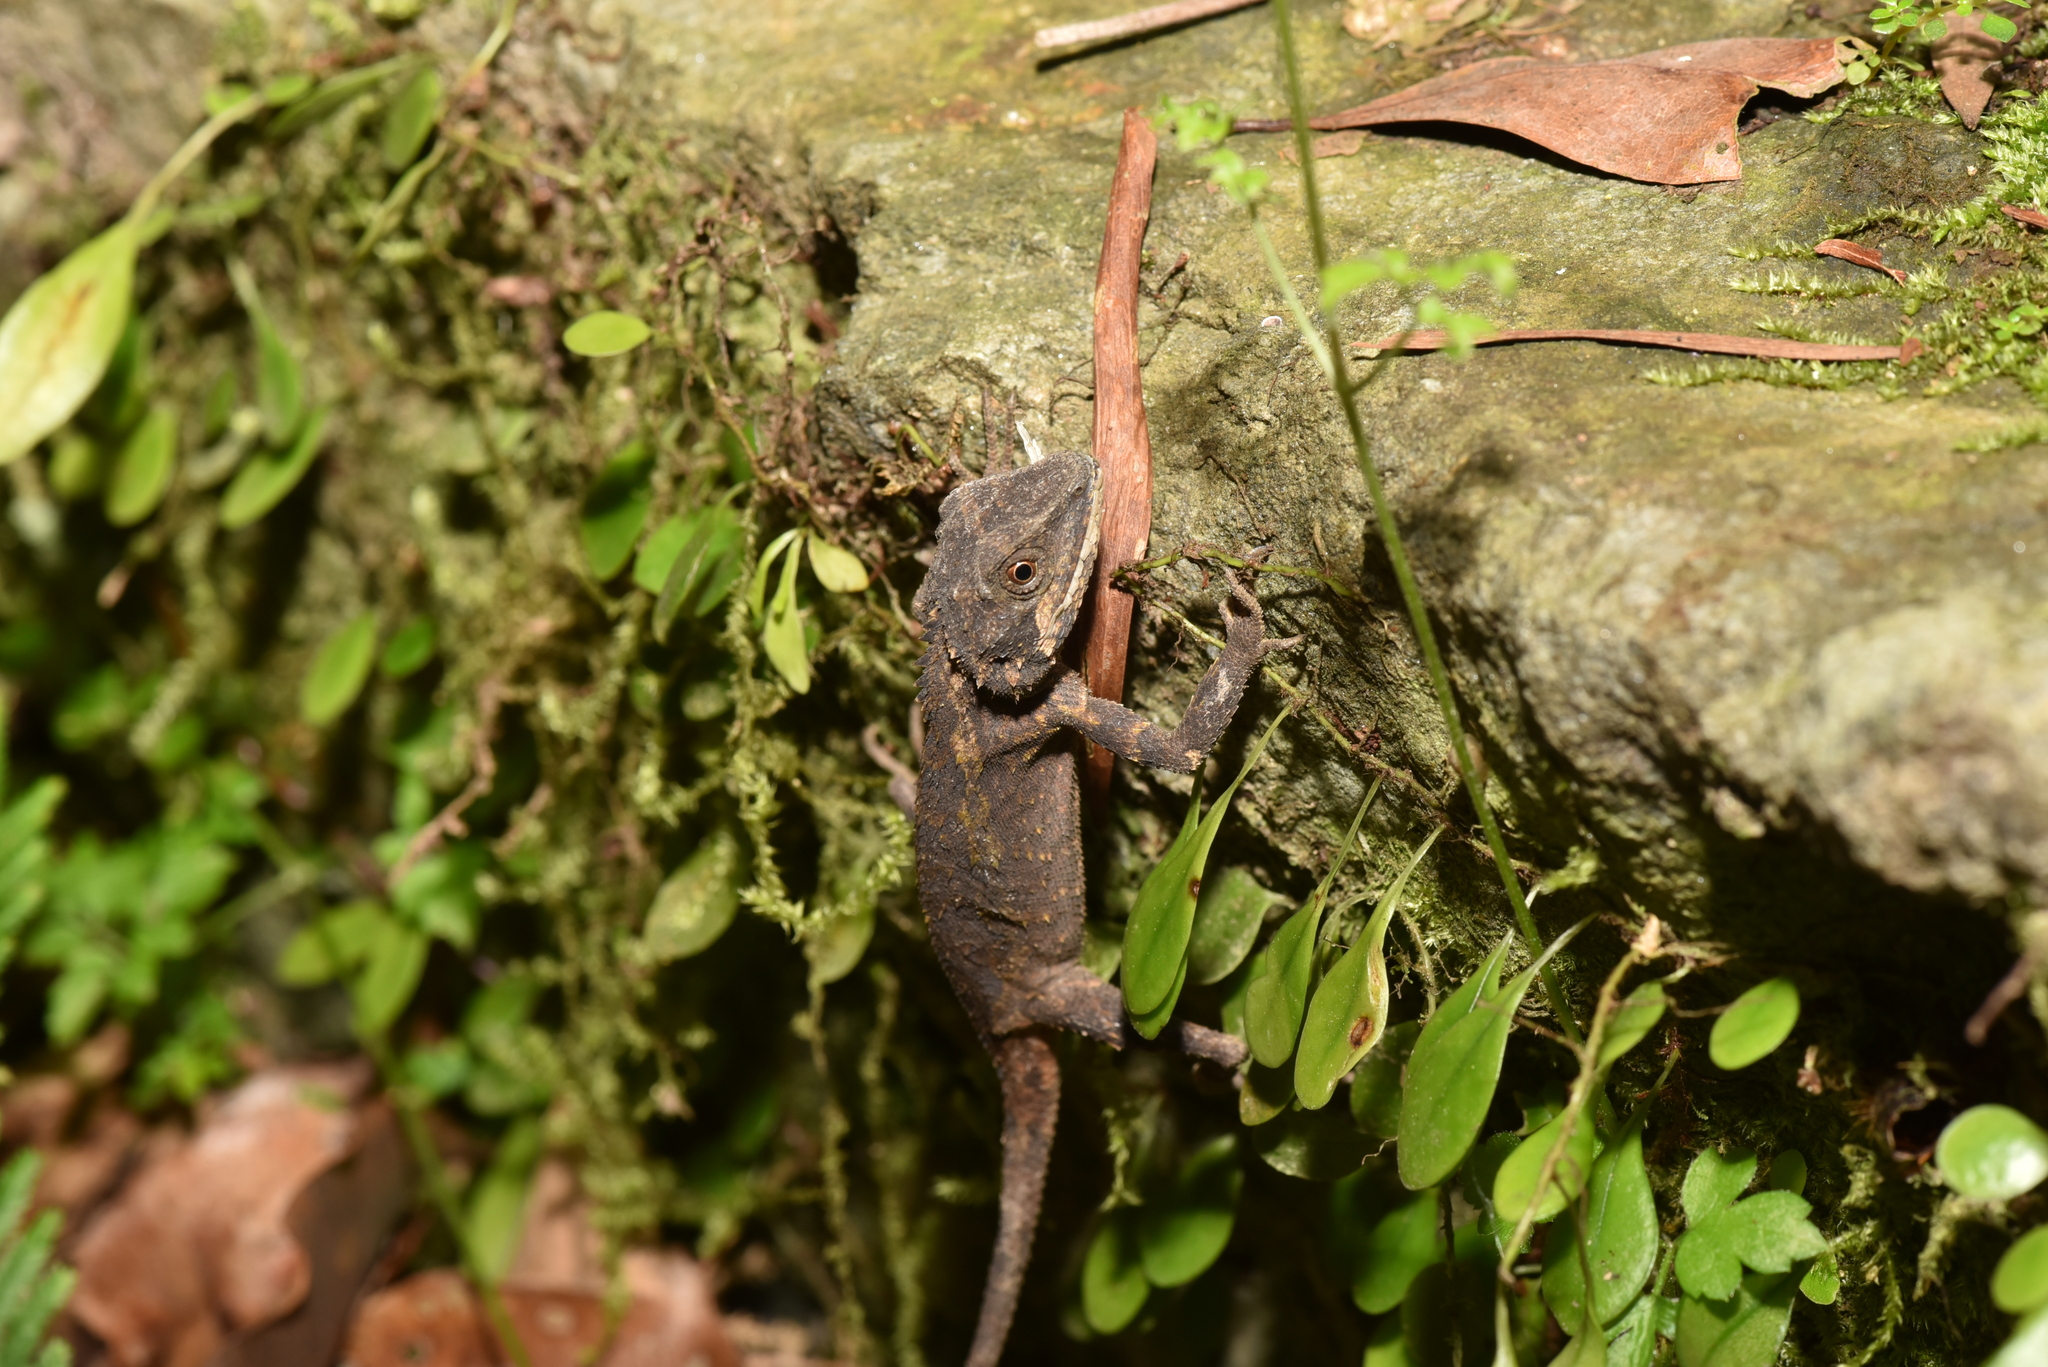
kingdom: Animalia
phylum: Chordata
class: Squamata
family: Agamidae
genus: Diploderma
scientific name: Diploderma swinhonis
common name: Taiwan japalure
